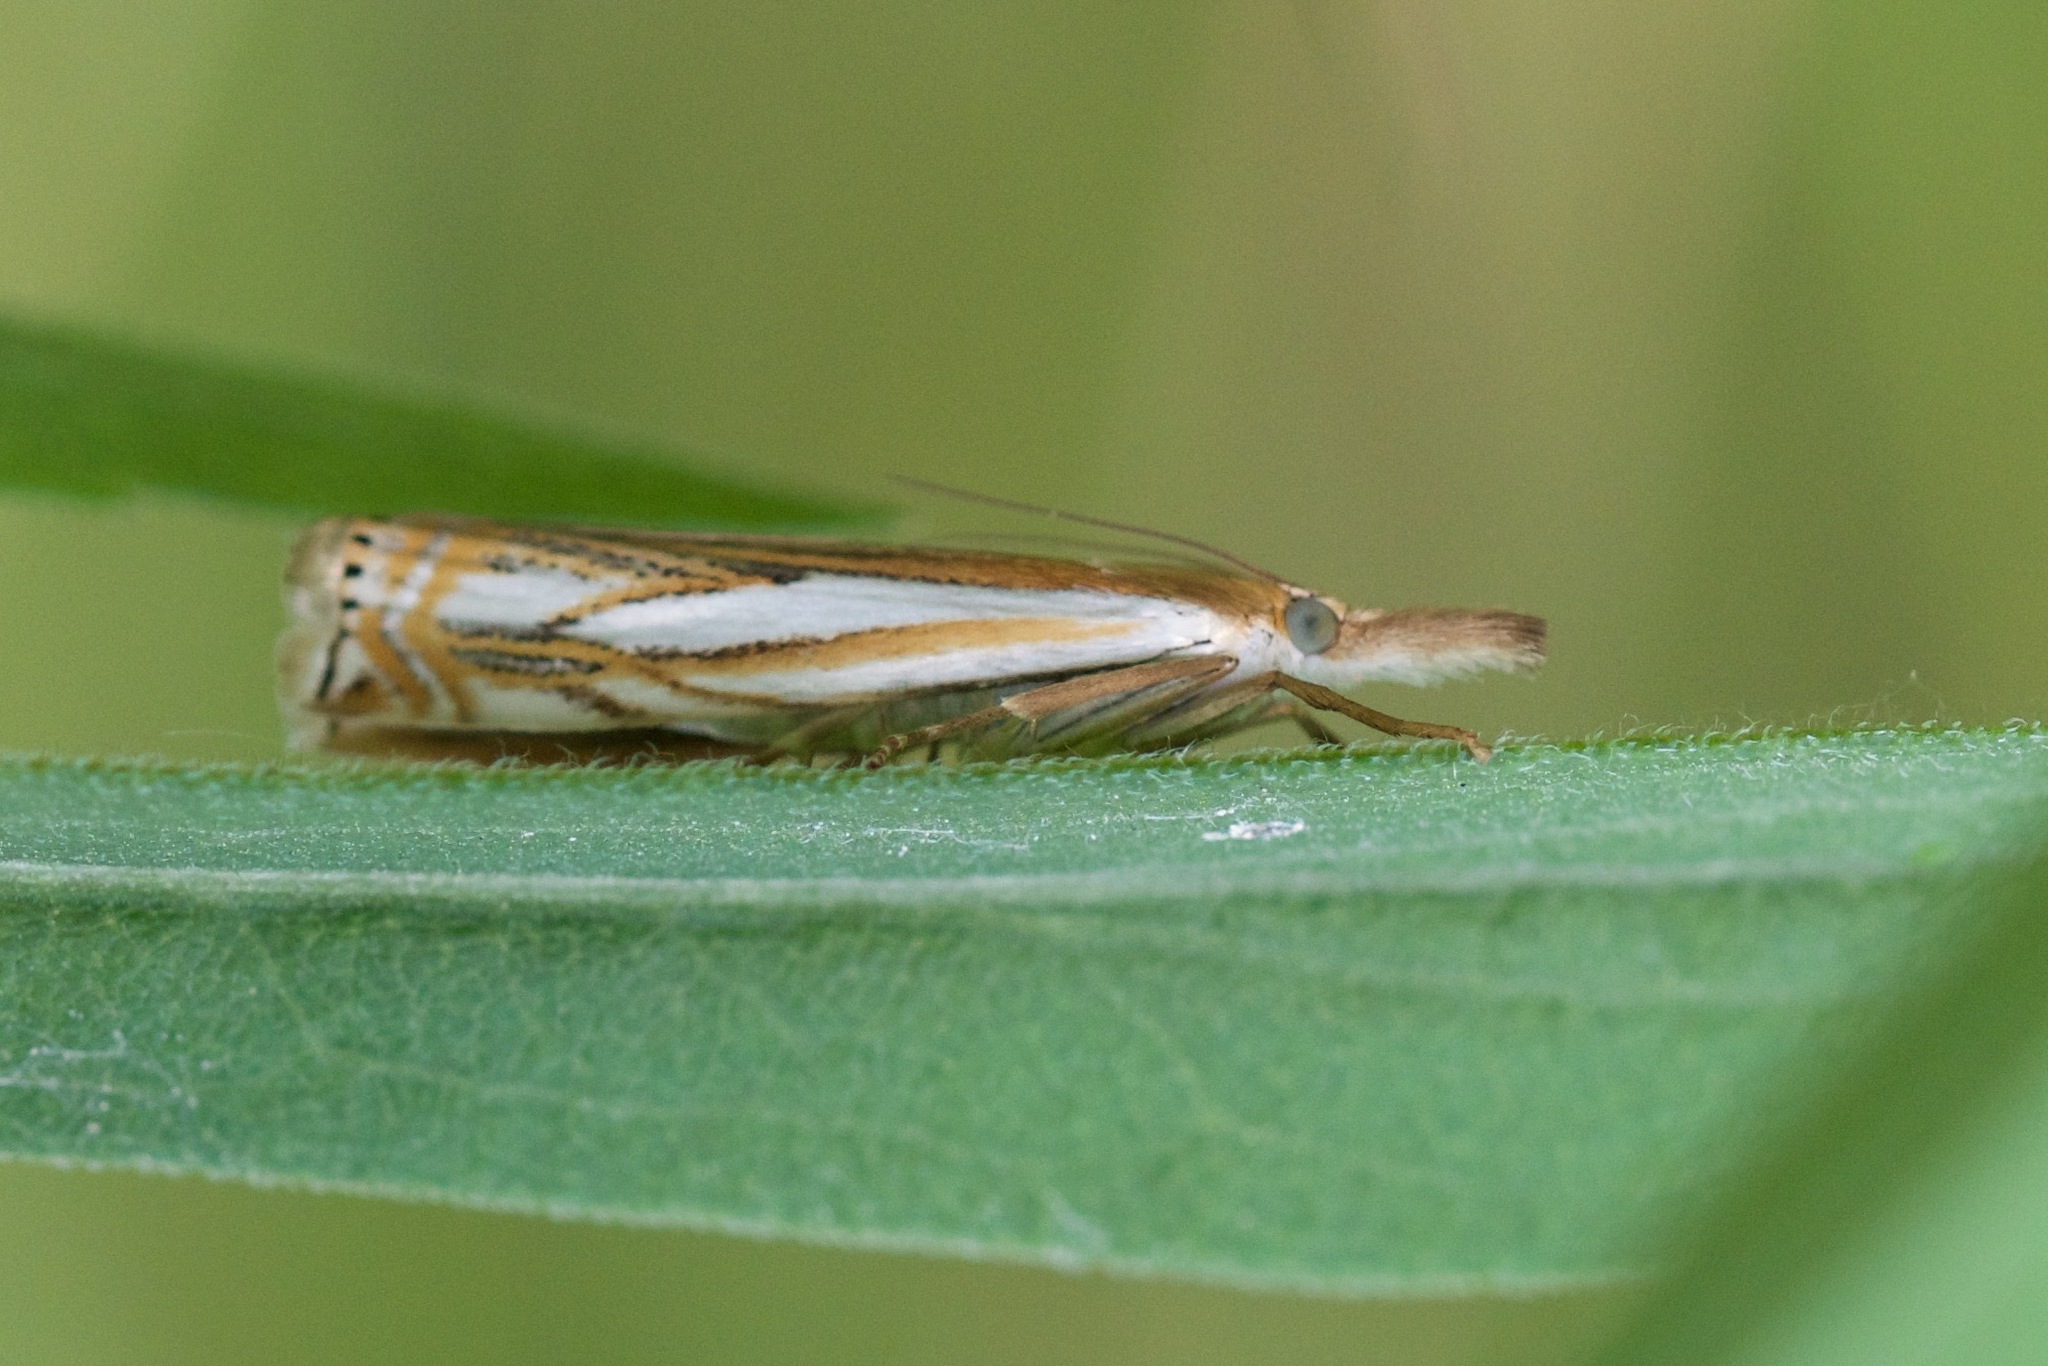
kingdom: Animalia
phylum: Arthropoda
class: Insecta
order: Lepidoptera
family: Crambidae
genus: Crambus
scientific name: Crambus saltuellus
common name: Pasture grass-veneer
